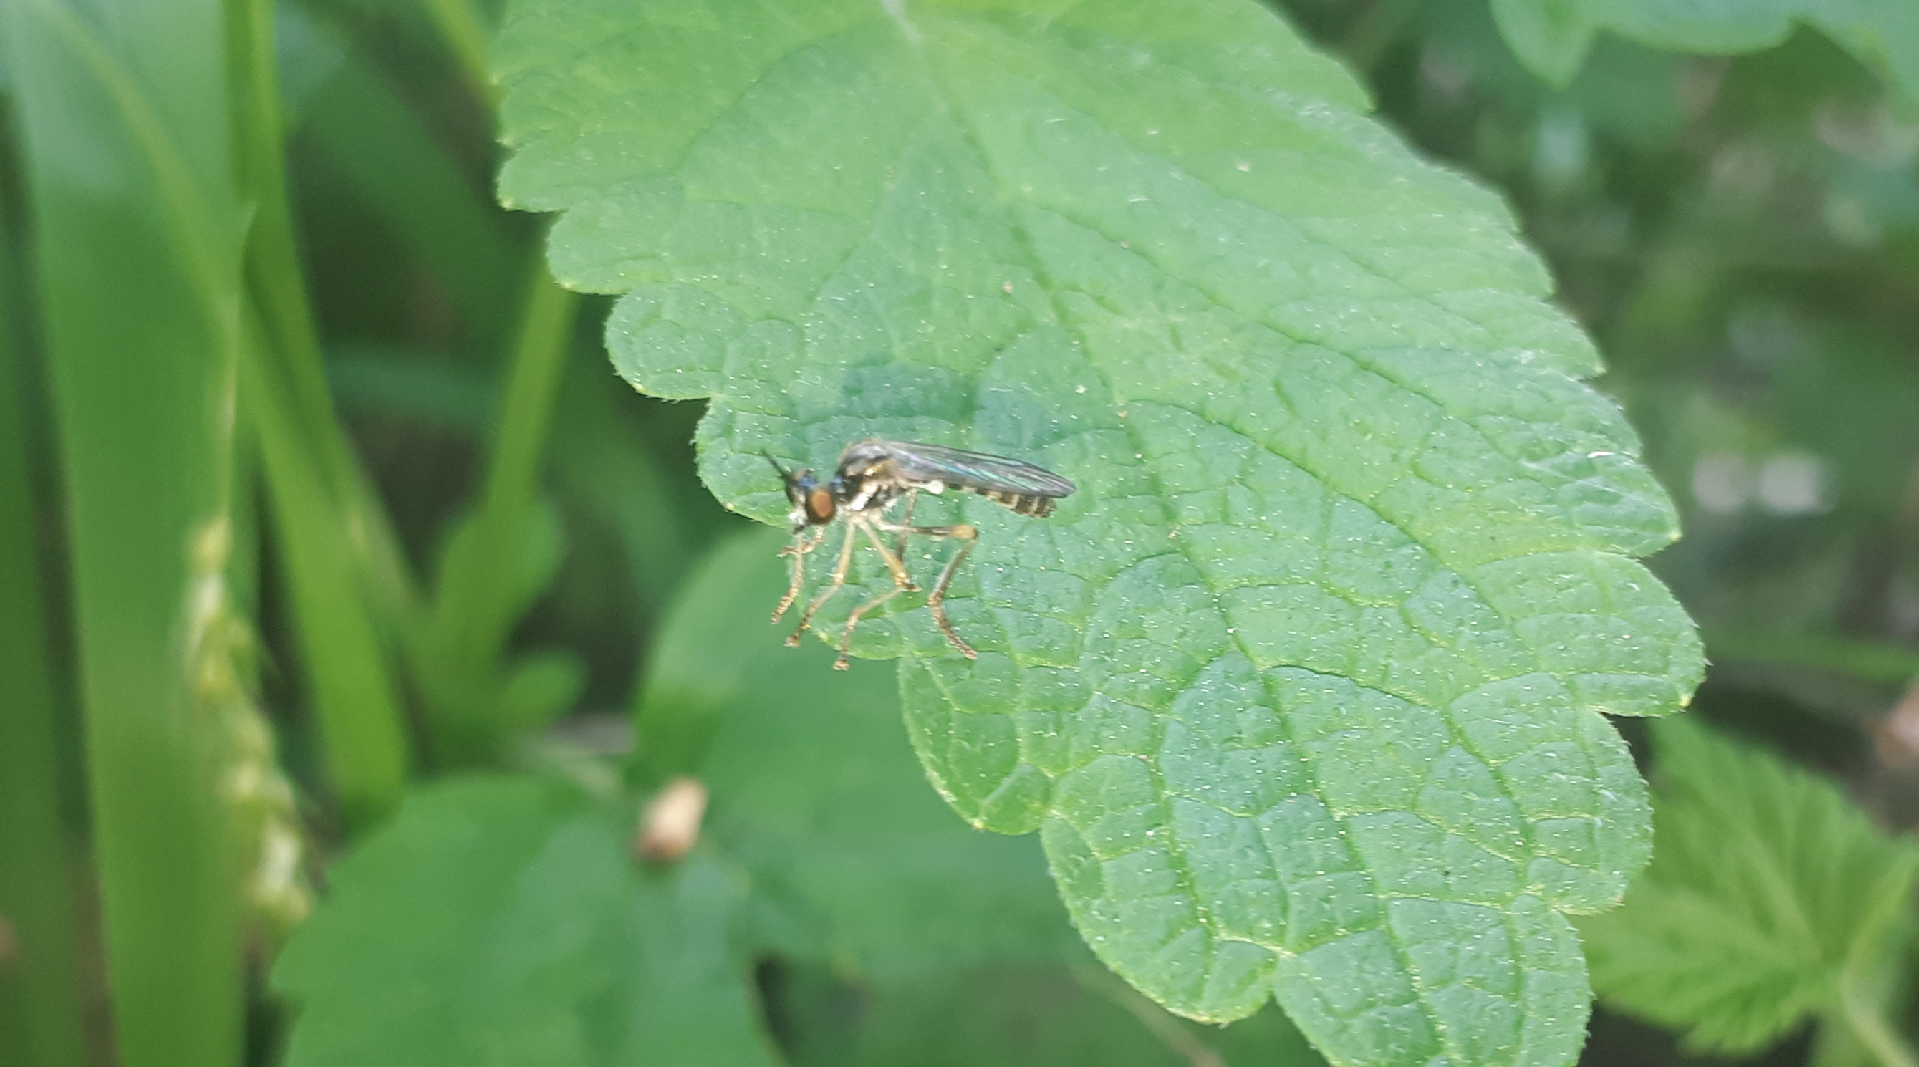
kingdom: Animalia
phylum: Arthropoda
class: Insecta
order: Diptera
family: Asilidae
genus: Dioctria
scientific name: Dioctria linearis
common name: Small yellow-legged robberfly
